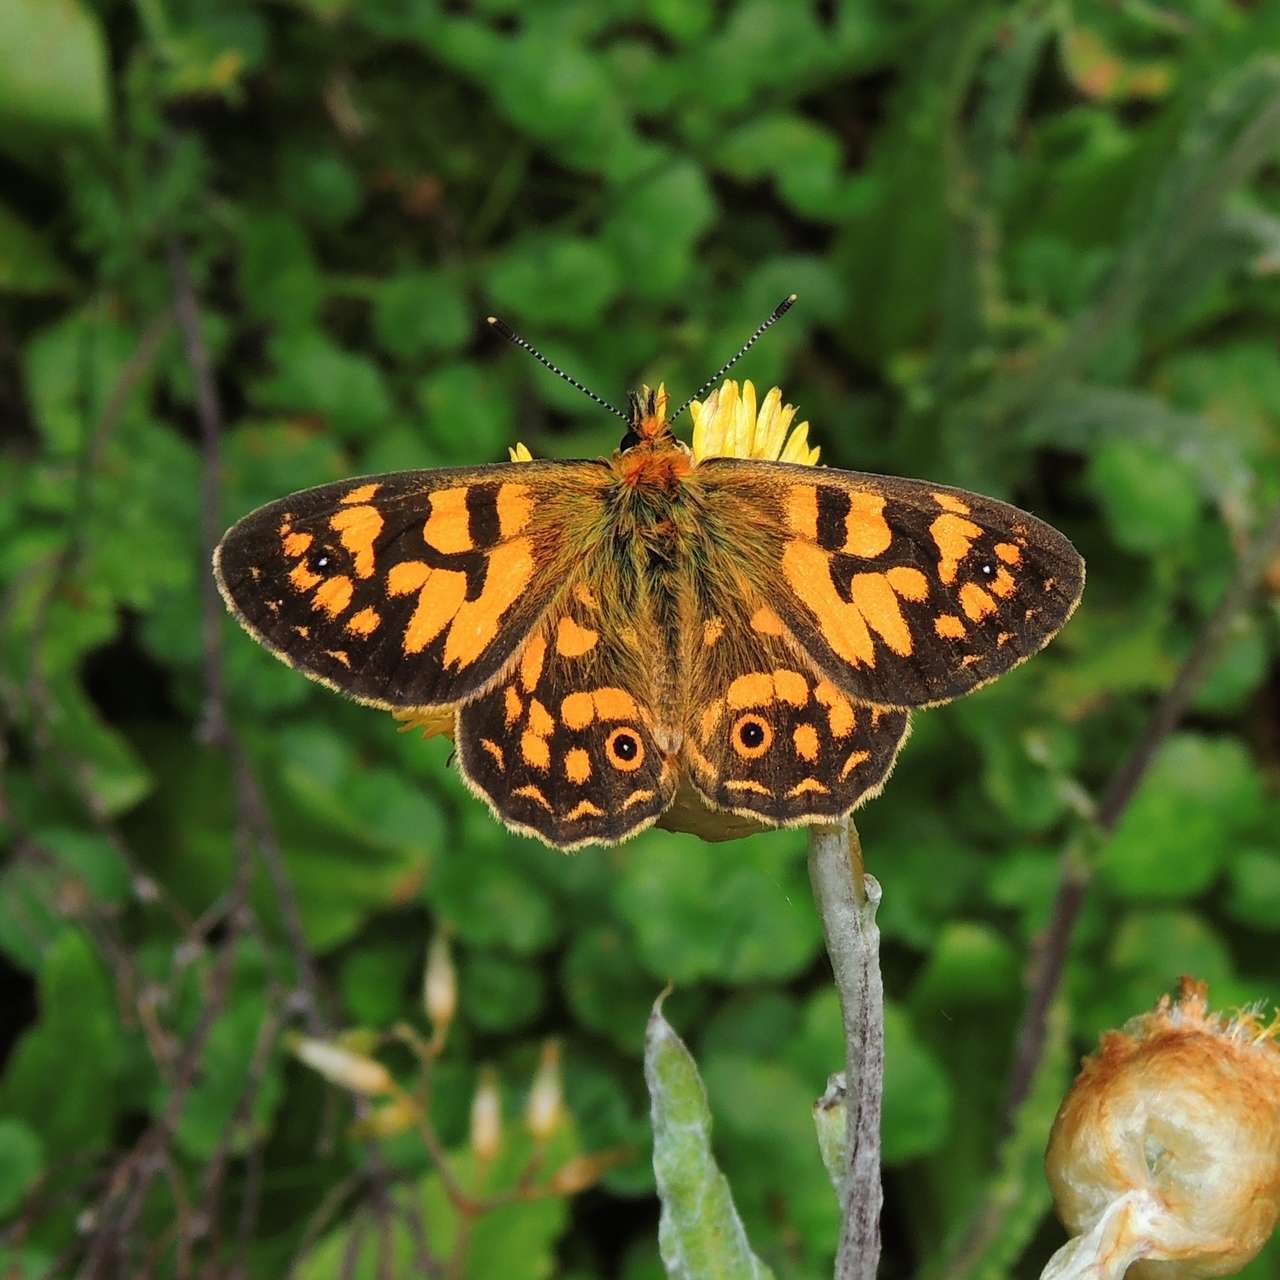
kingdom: Animalia
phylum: Arthropoda
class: Insecta
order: Lepidoptera
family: Nymphalidae
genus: Oreixenica
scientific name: Oreixenica correae
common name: Correa brown
